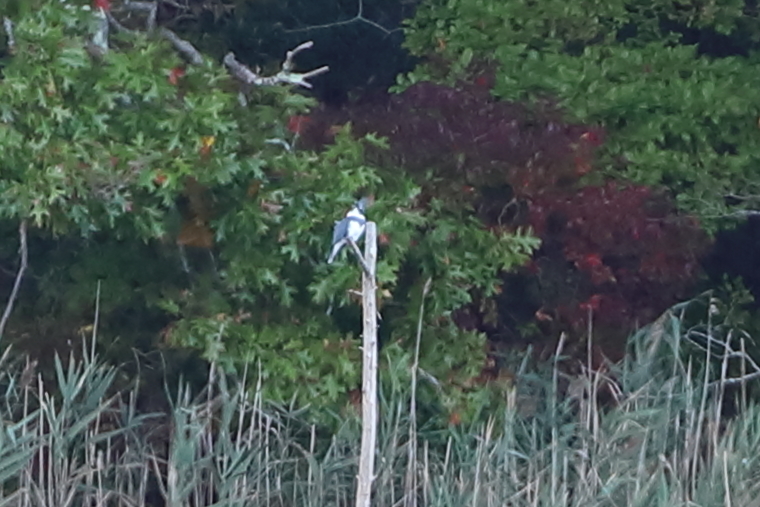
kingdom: Animalia
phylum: Chordata
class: Aves
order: Coraciiformes
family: Alcedinidae
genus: Megaceryle
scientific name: Megaceryle alcyon
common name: Belted kingfisher
